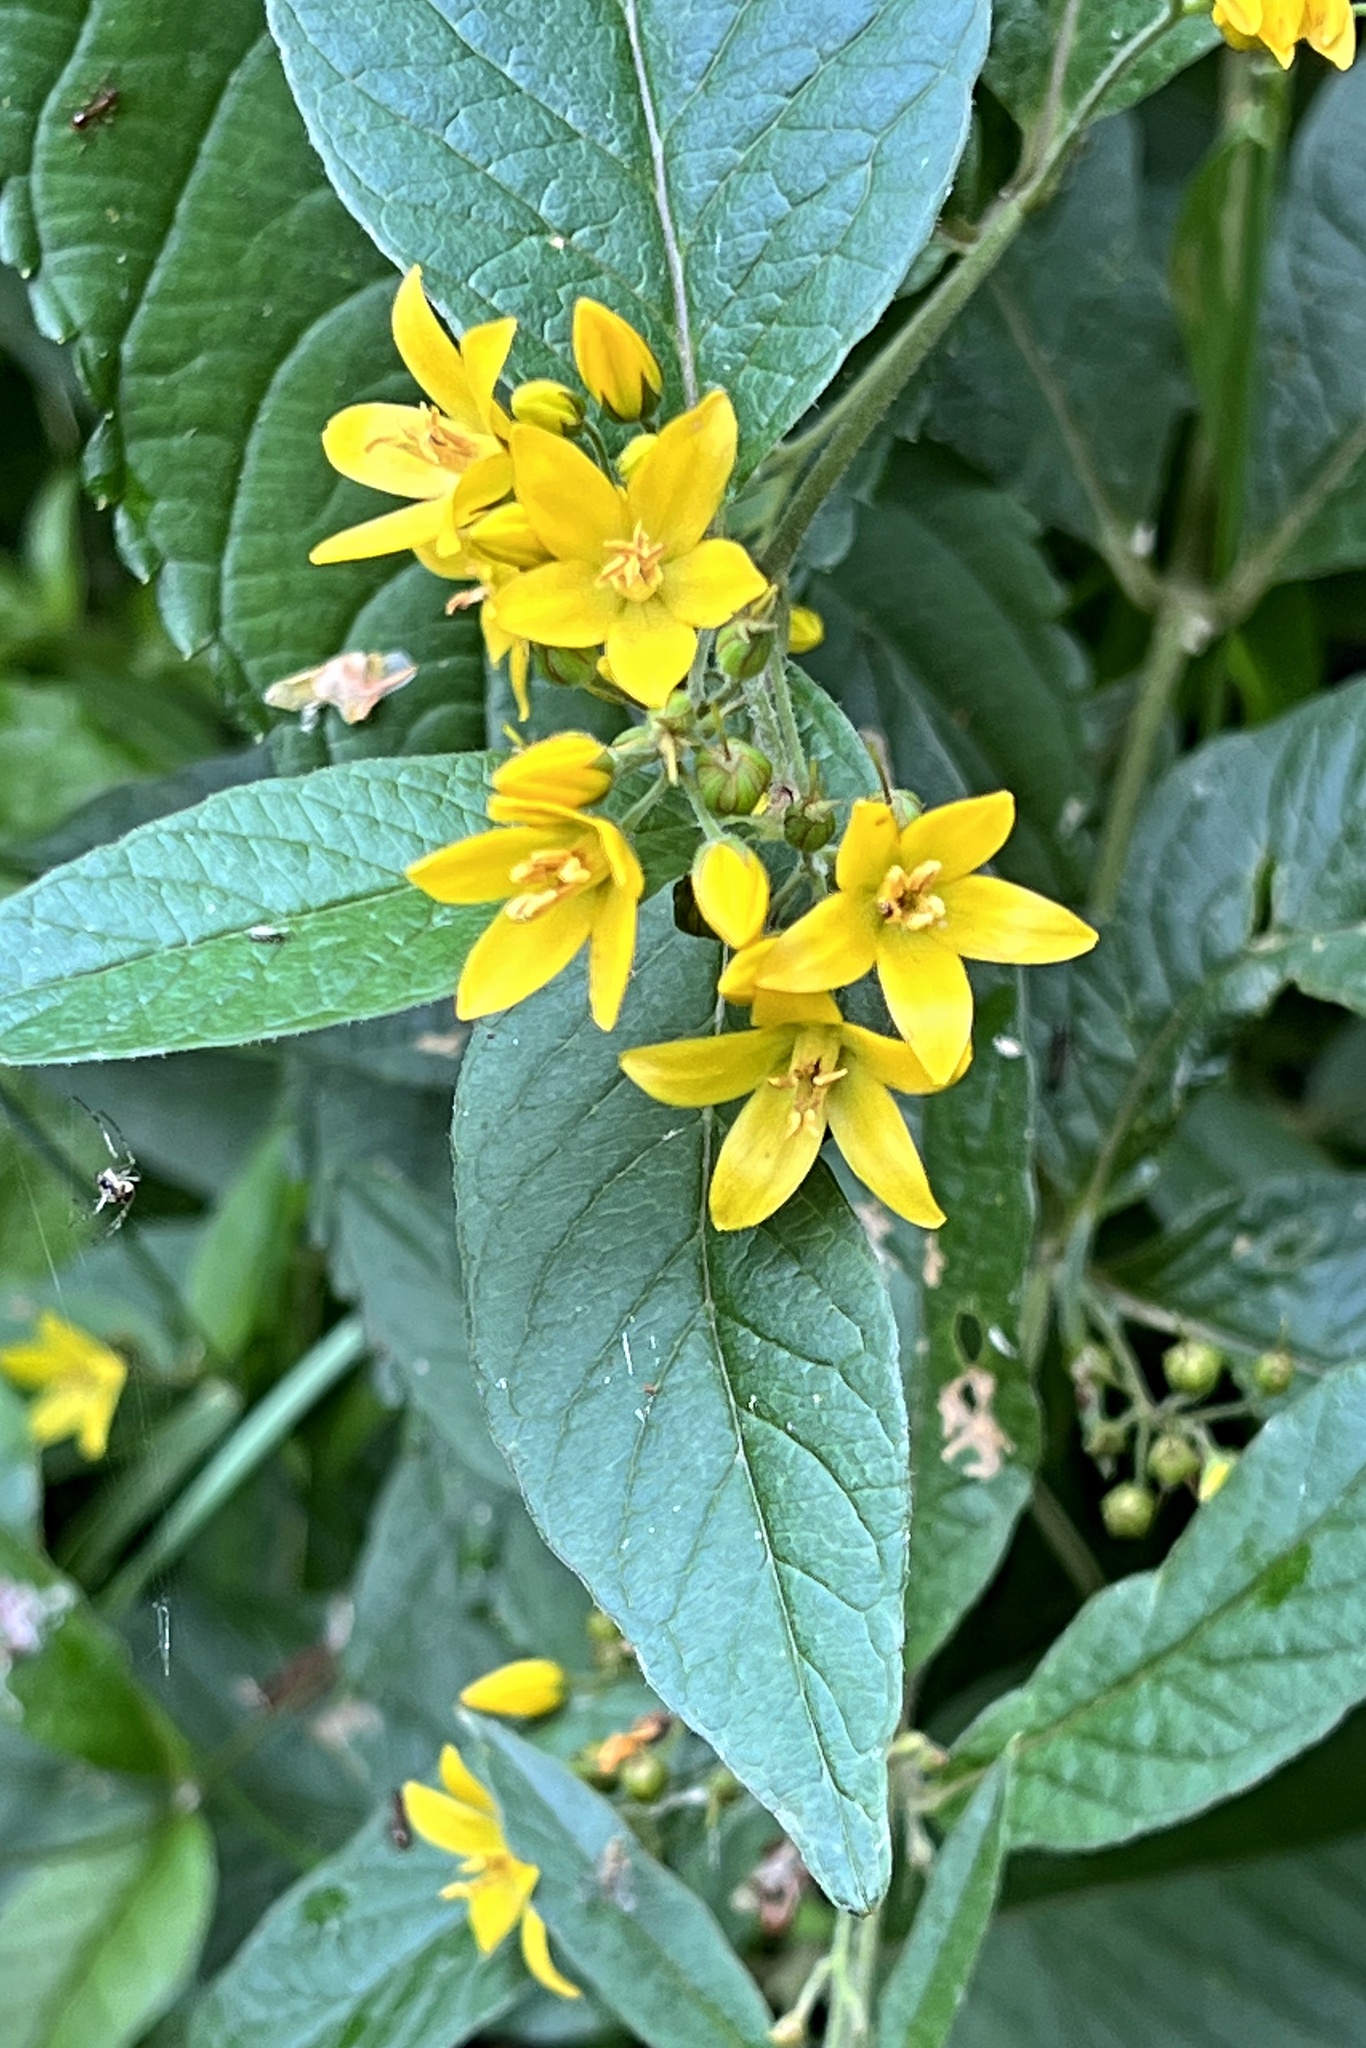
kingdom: Plantae
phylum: Tracheophyta
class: Magnoliopsida
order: Ericales
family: Primulaceae
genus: Lysimachia
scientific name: Lysimachia vulgaris
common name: Yellow loosestrife
